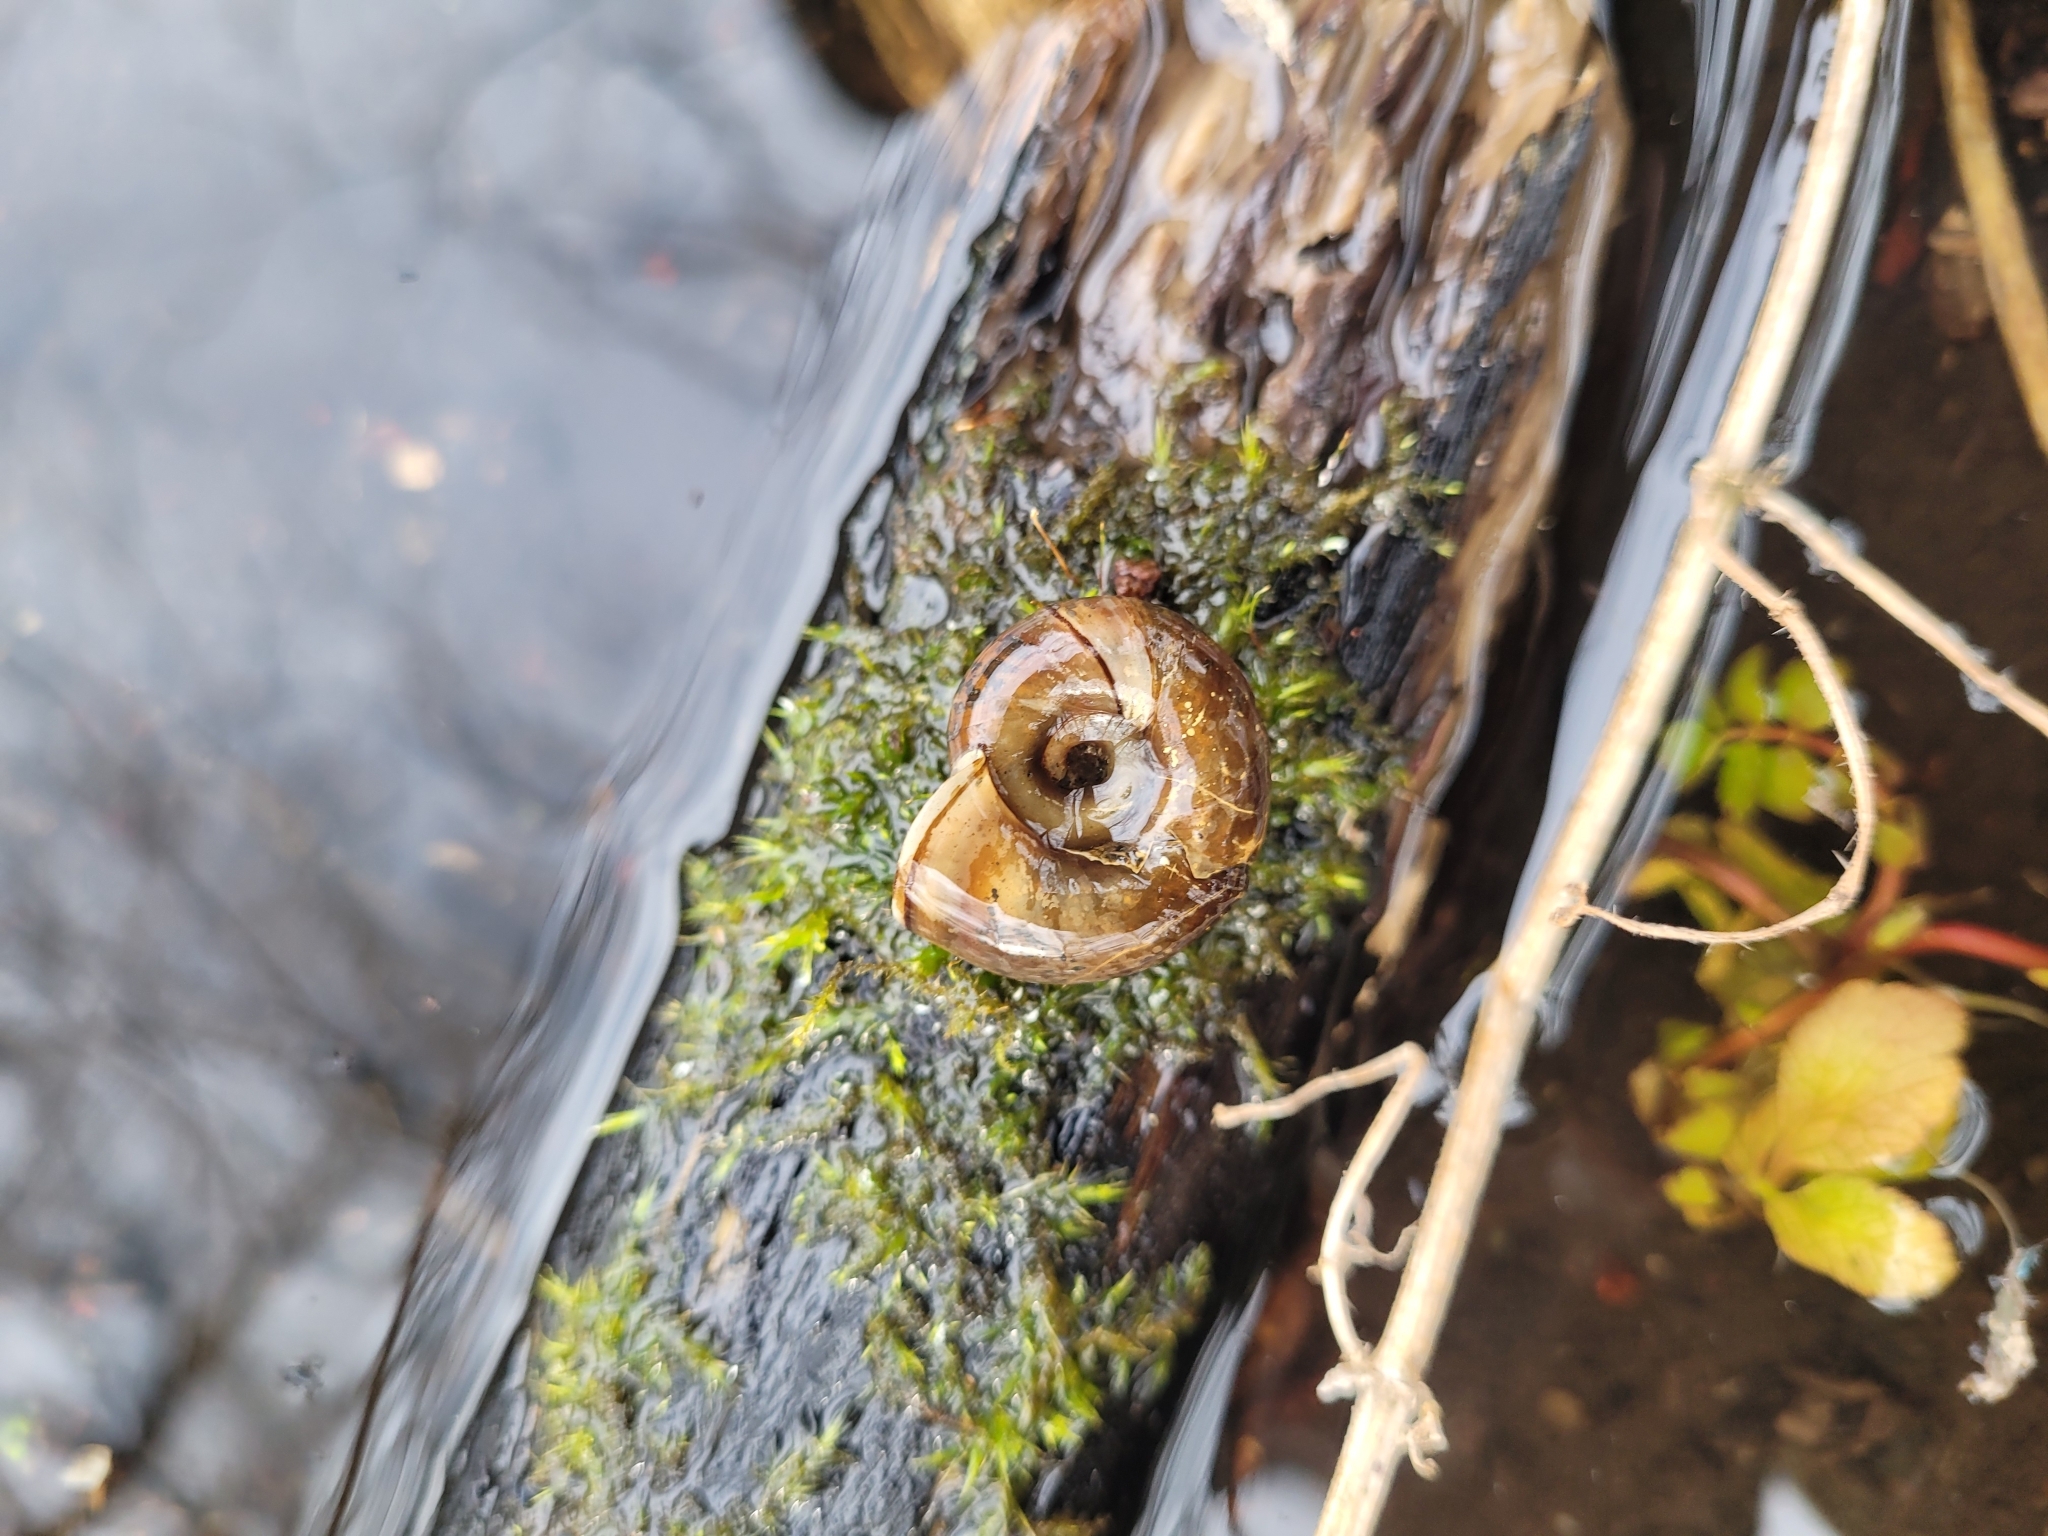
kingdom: Animalia
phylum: Mollusca
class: Gastropoda
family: Planorbidae
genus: Planorbarius
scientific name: Planorbarius corneus
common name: Great ramshorn
